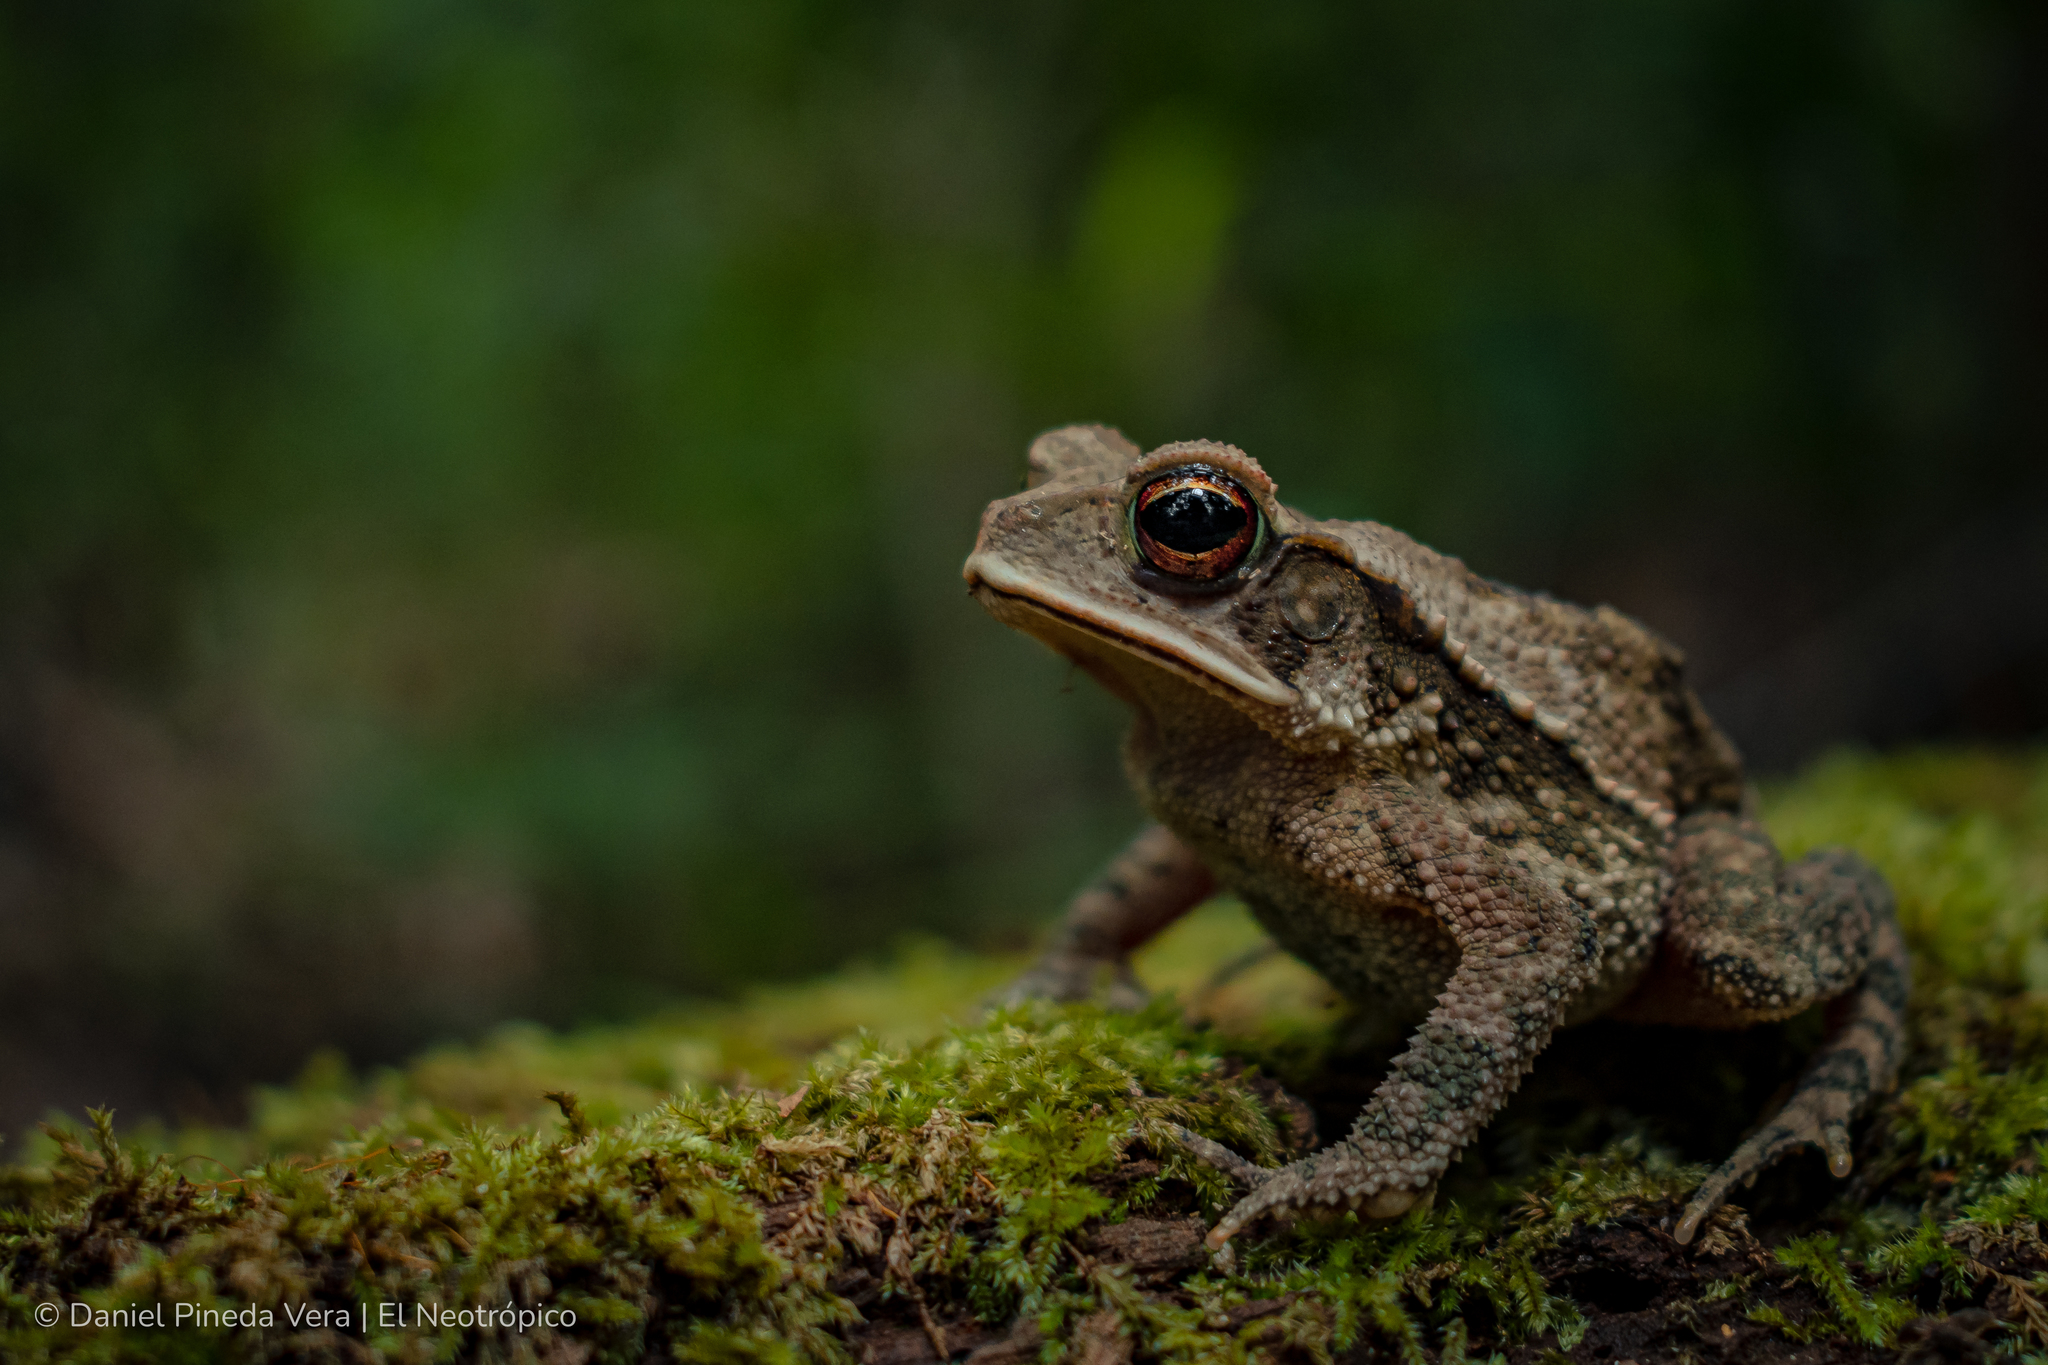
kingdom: Animalia
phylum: Chordata
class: Amphibia
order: Anura
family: Bufonidae
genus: Incilius
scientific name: Incilius campbelli
